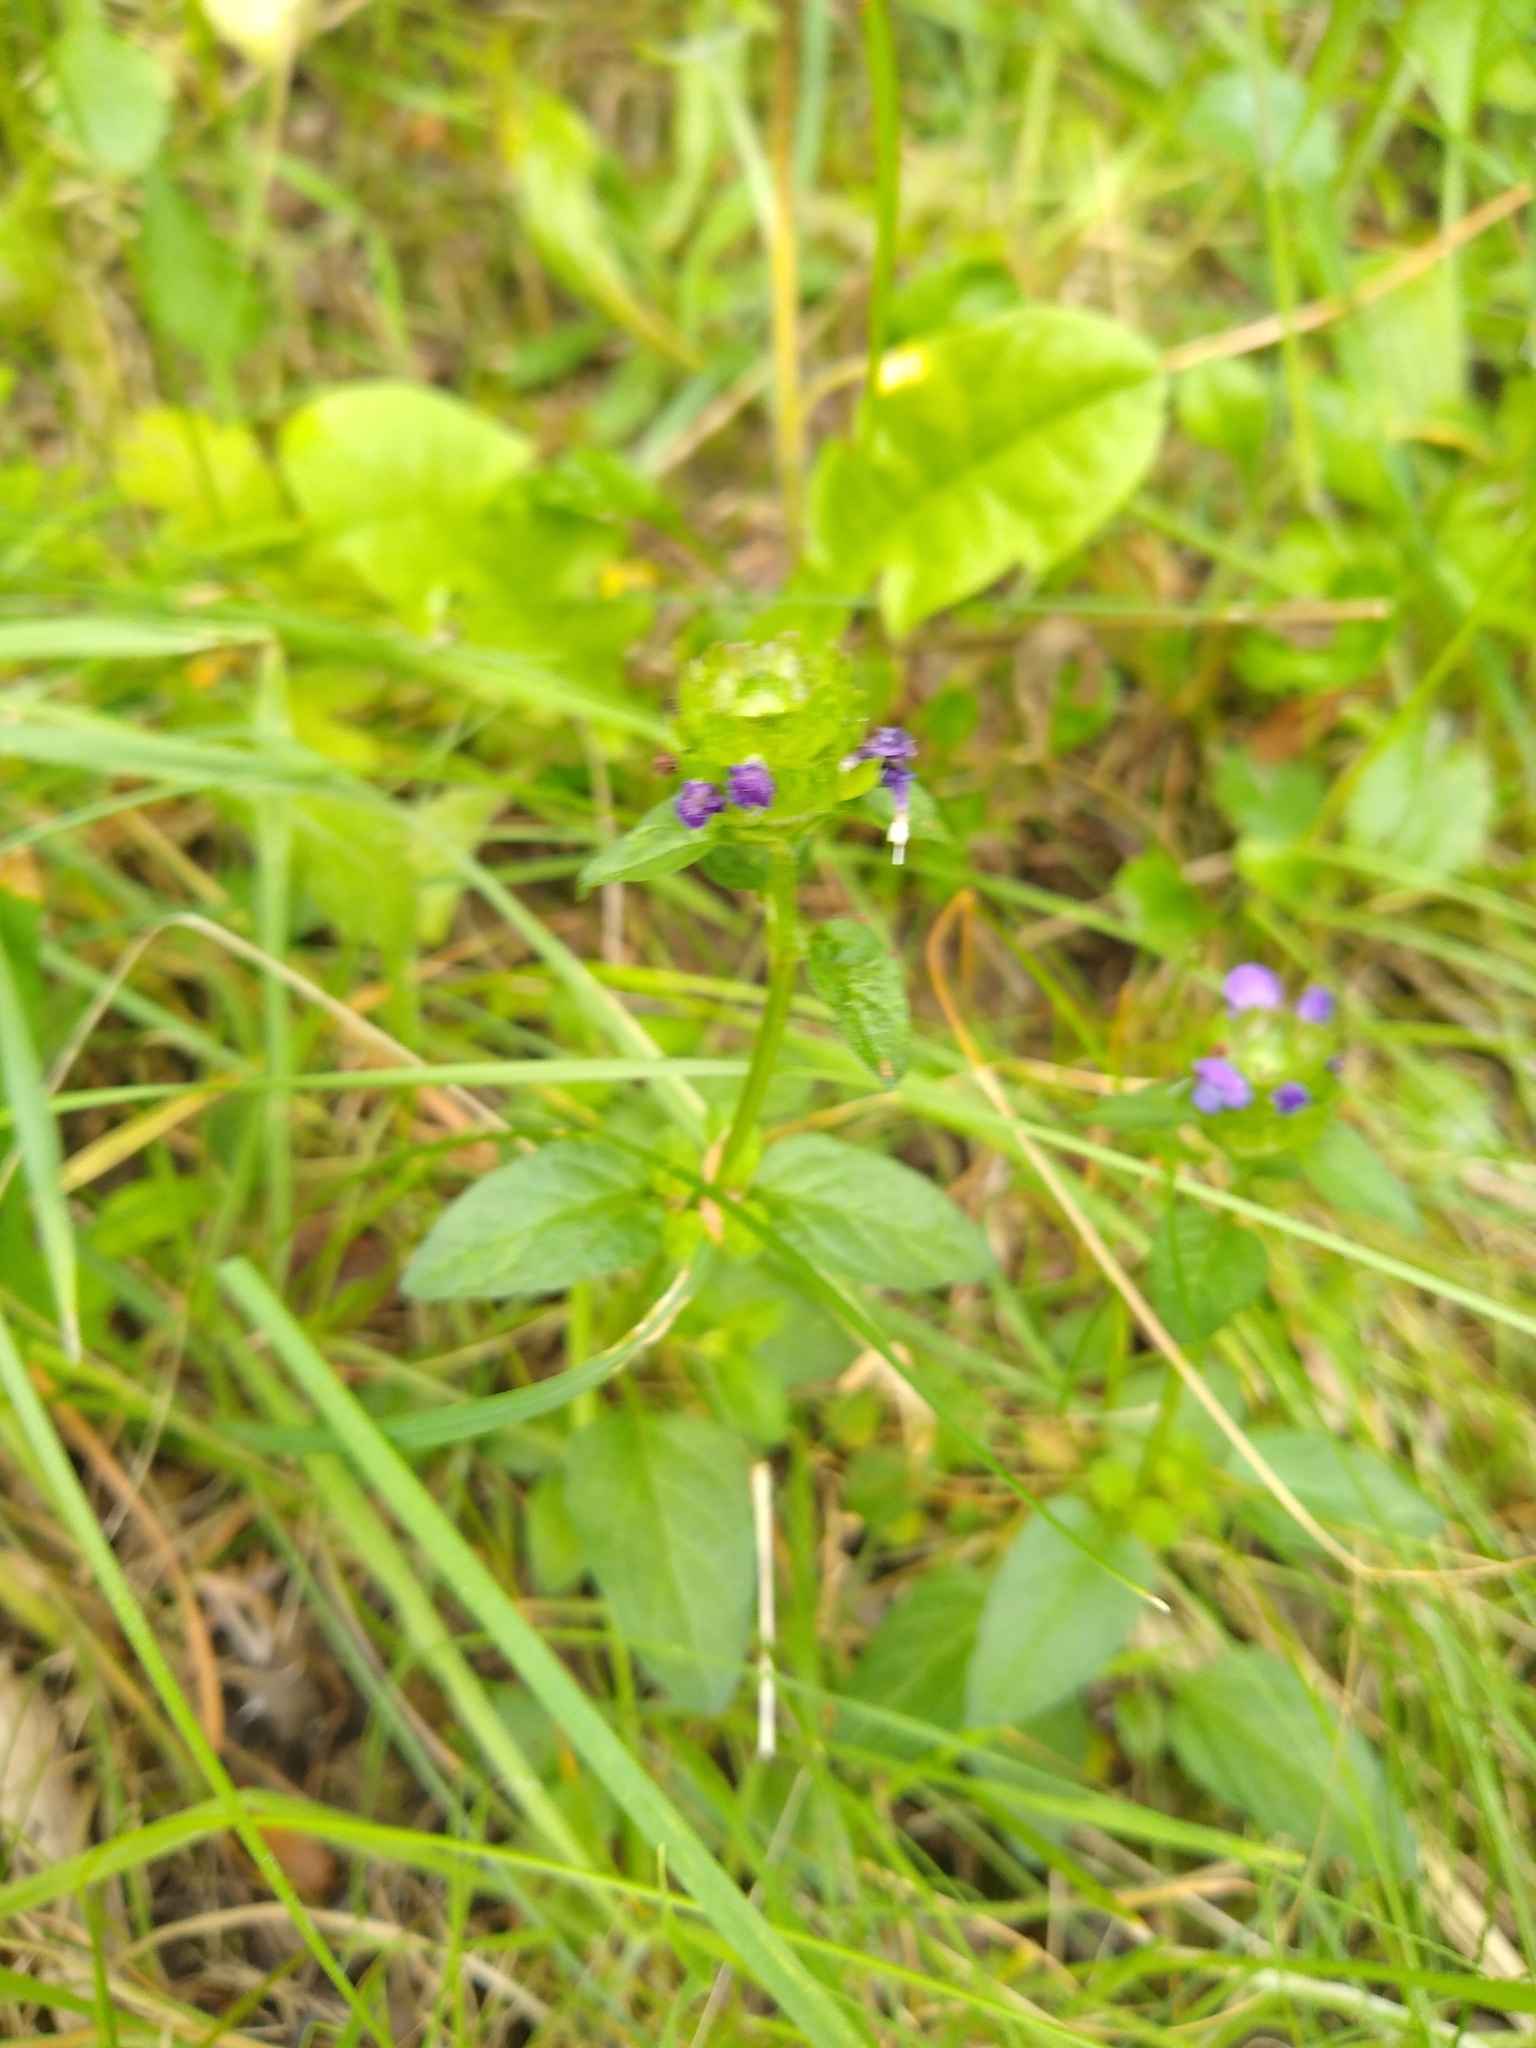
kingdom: Plantae
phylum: Tracheophyta
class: Magnoliopsida
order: Lamiales
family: Lamiaceae
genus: Prunella
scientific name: Prunella vulgaris
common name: Heal-all
